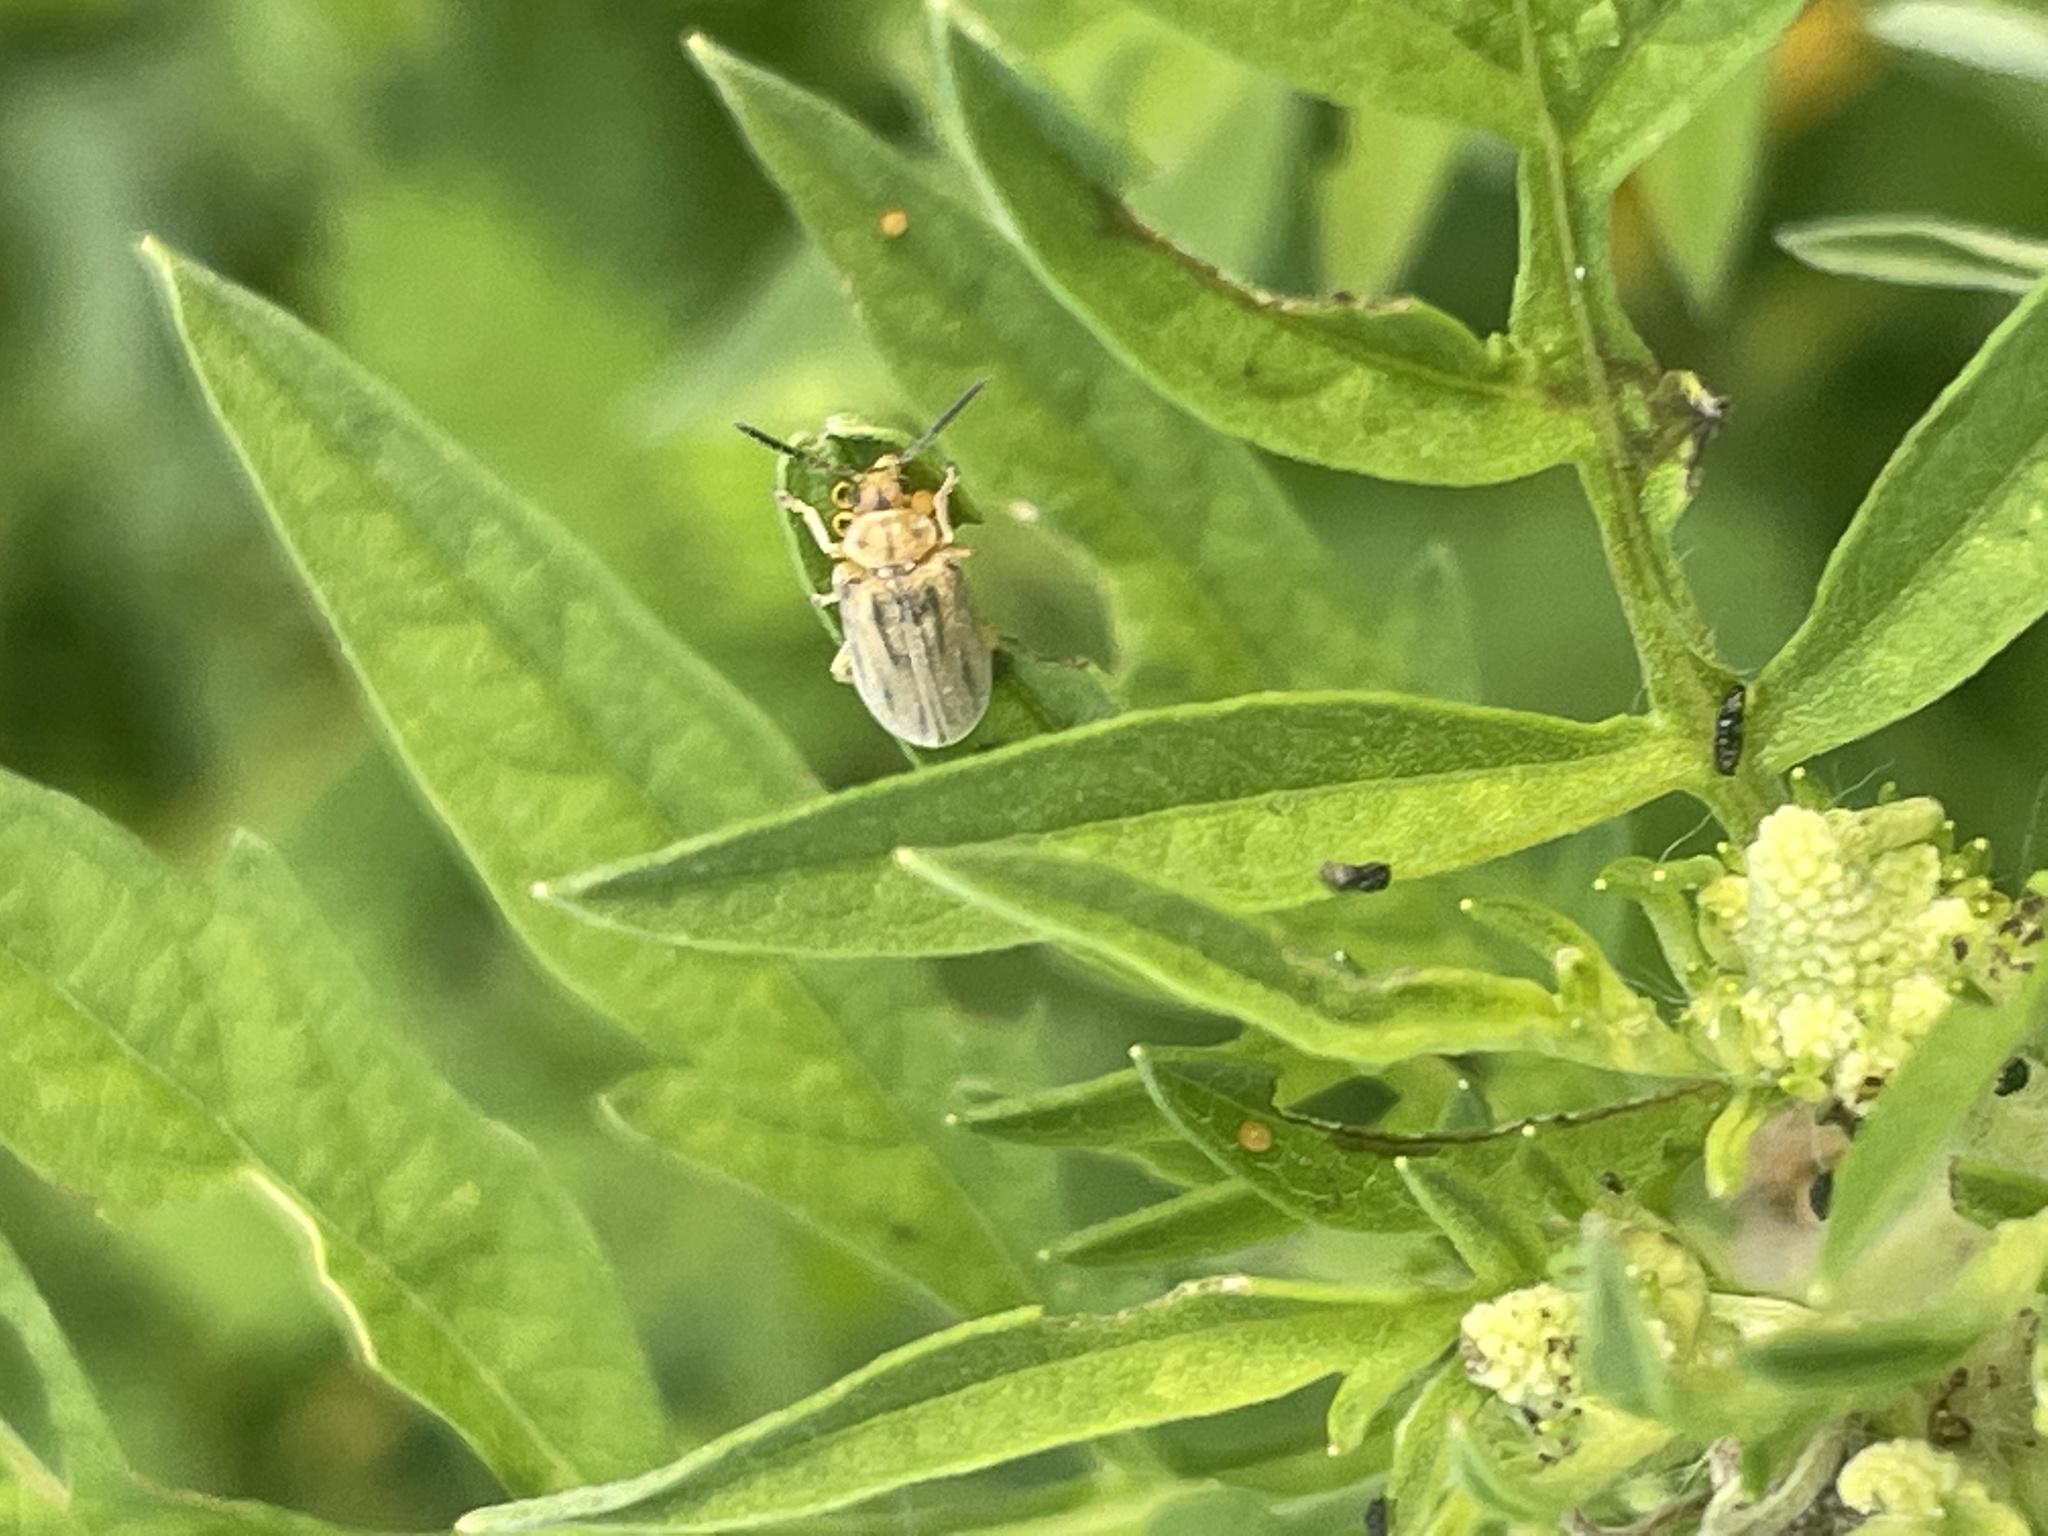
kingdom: Animalia
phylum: Arthropoda
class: Insecta
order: Coleoptera
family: Chrysomelidae
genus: Ophraella
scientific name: Ophraella communa
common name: Ragweed leaf beetle
